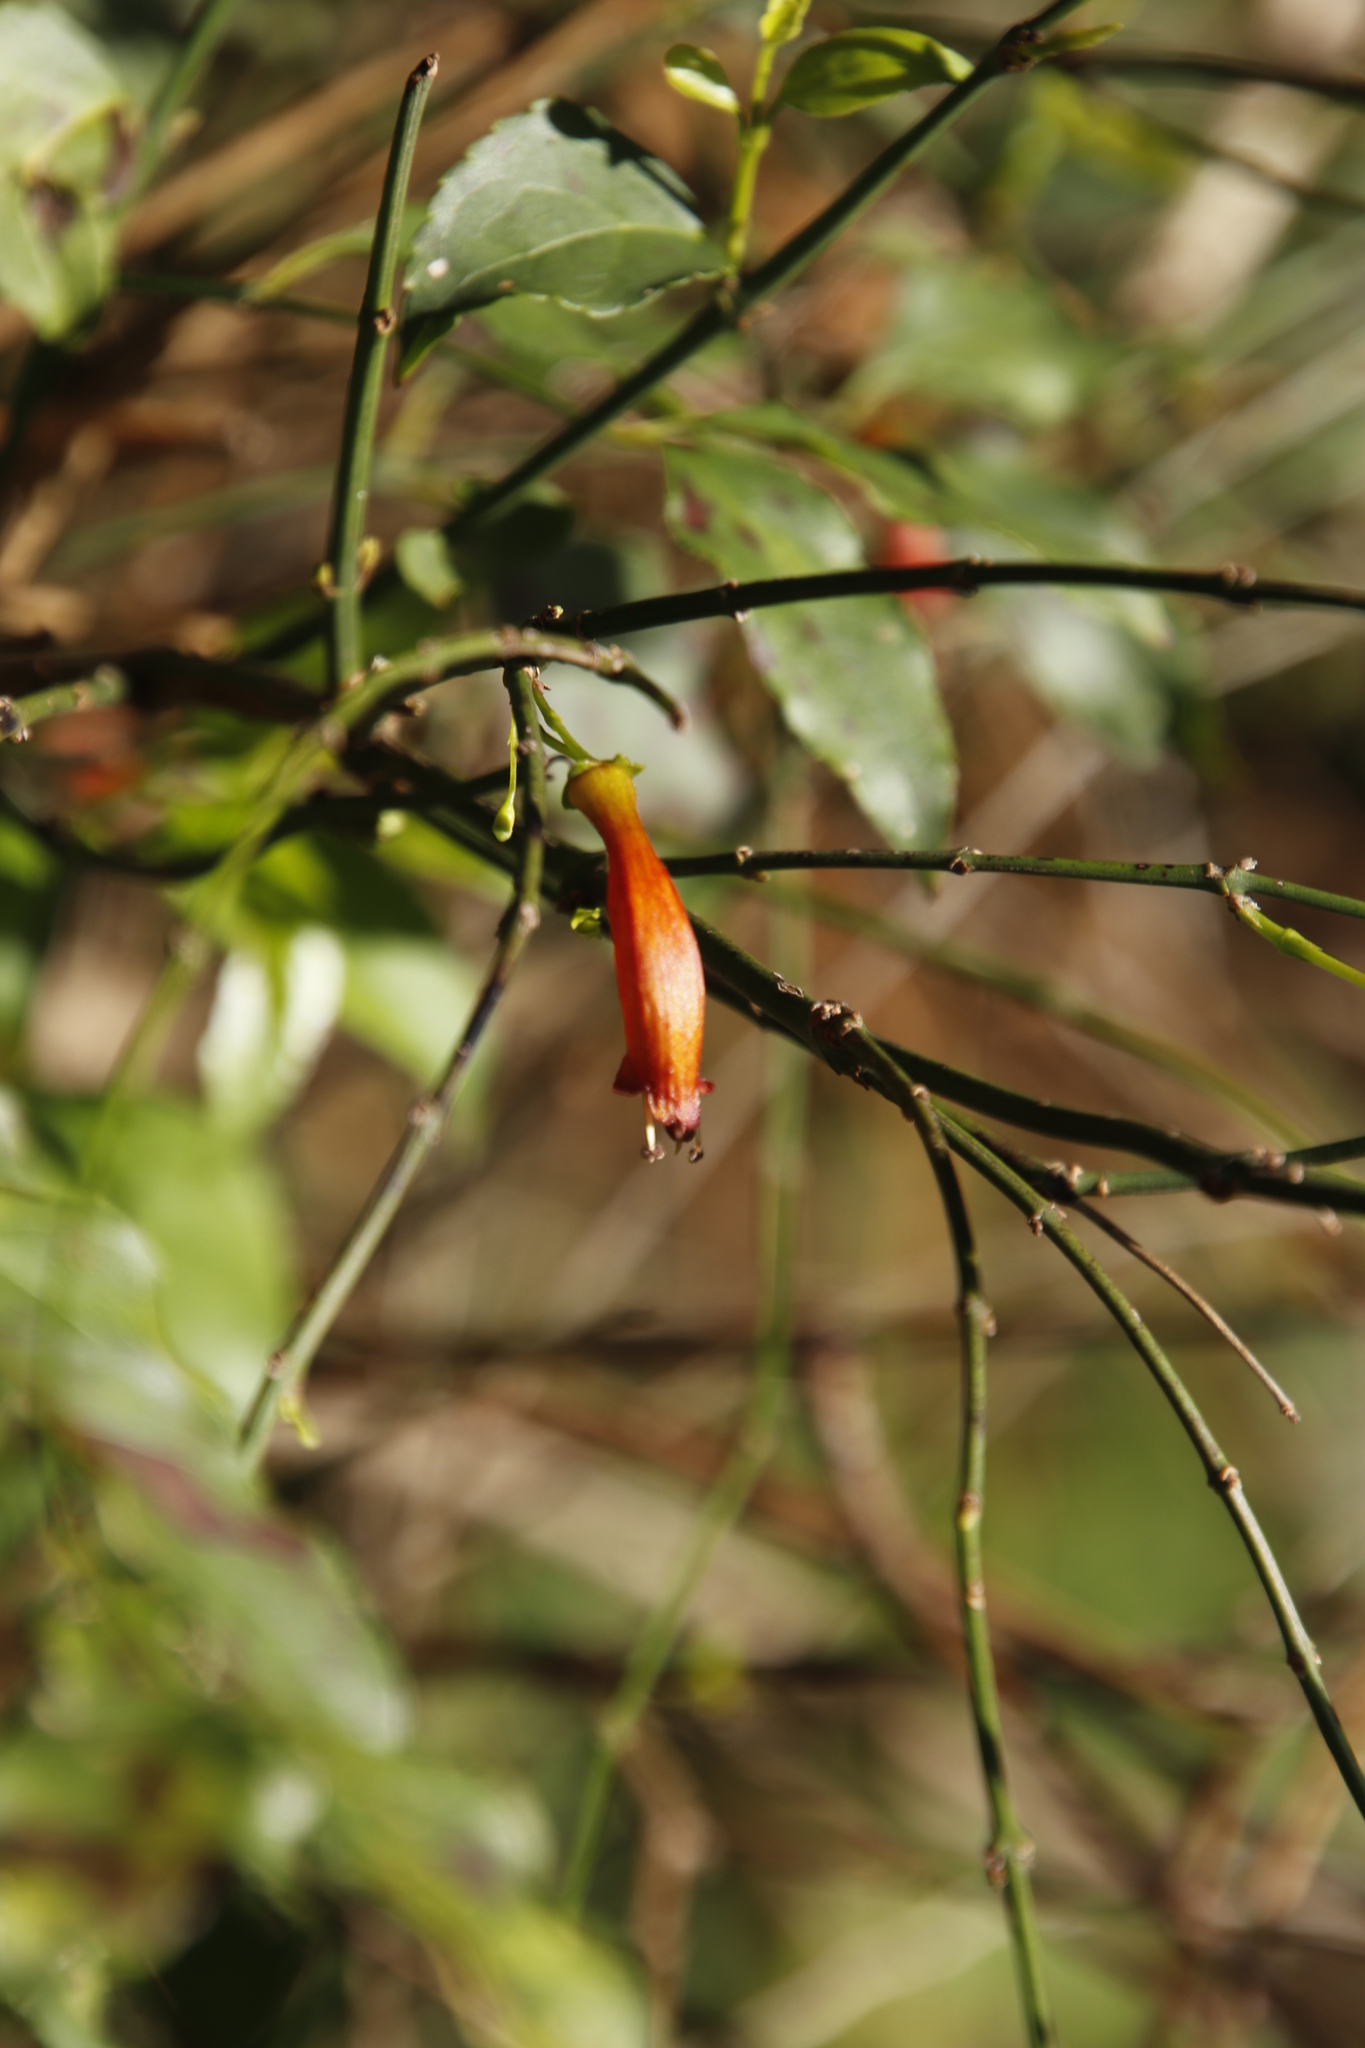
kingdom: Plantae
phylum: Tracheophyta
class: Magnoliopsida
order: Lamiales
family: Stilbaceae
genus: Halleria
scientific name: Halleria lucida
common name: Tree fuschia
